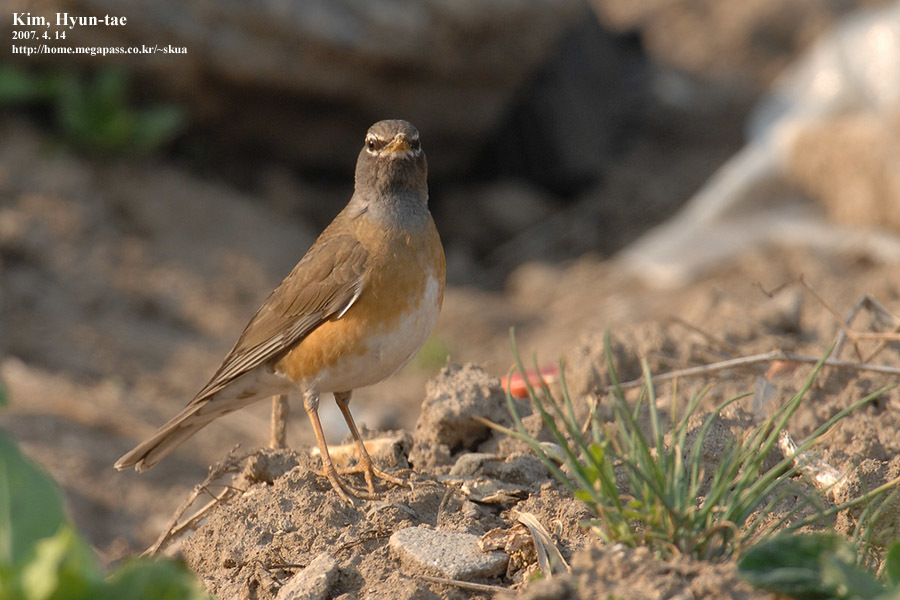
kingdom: Animalia
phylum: Chordata
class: Aves
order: Passeriformes
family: Turdidae
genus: Turdus
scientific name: Turdus obscurus
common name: Eyebrowed thrush
